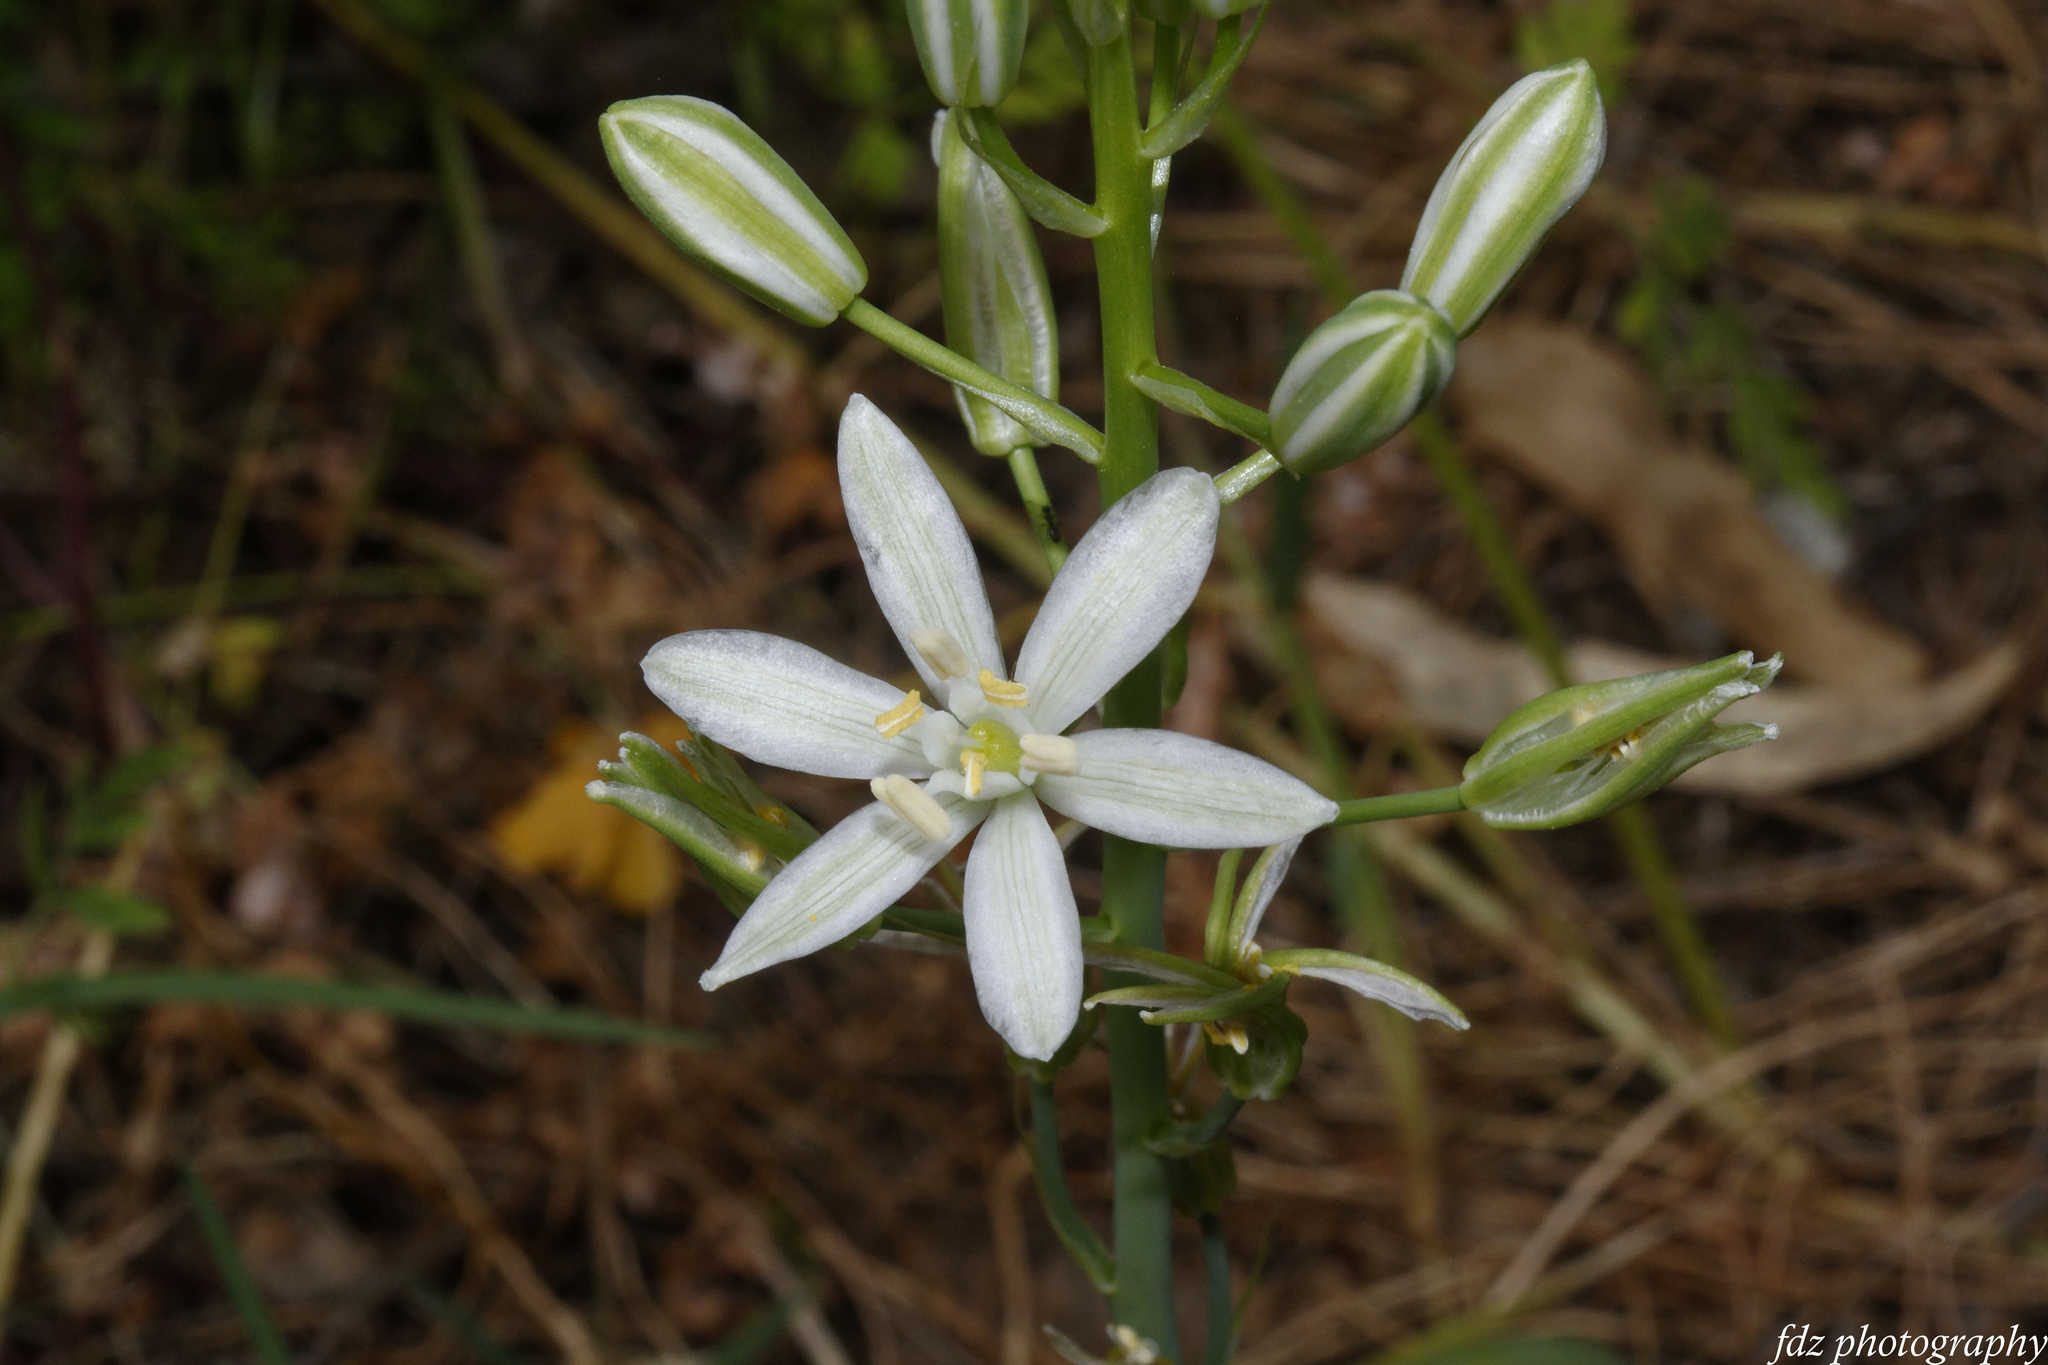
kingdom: Plantae
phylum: Tracheophyta
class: Liliopsida
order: Asparagales
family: Asparagaceae
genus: Ornithogalum
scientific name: Ornithogalum narbonense
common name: Bath-asparagus
